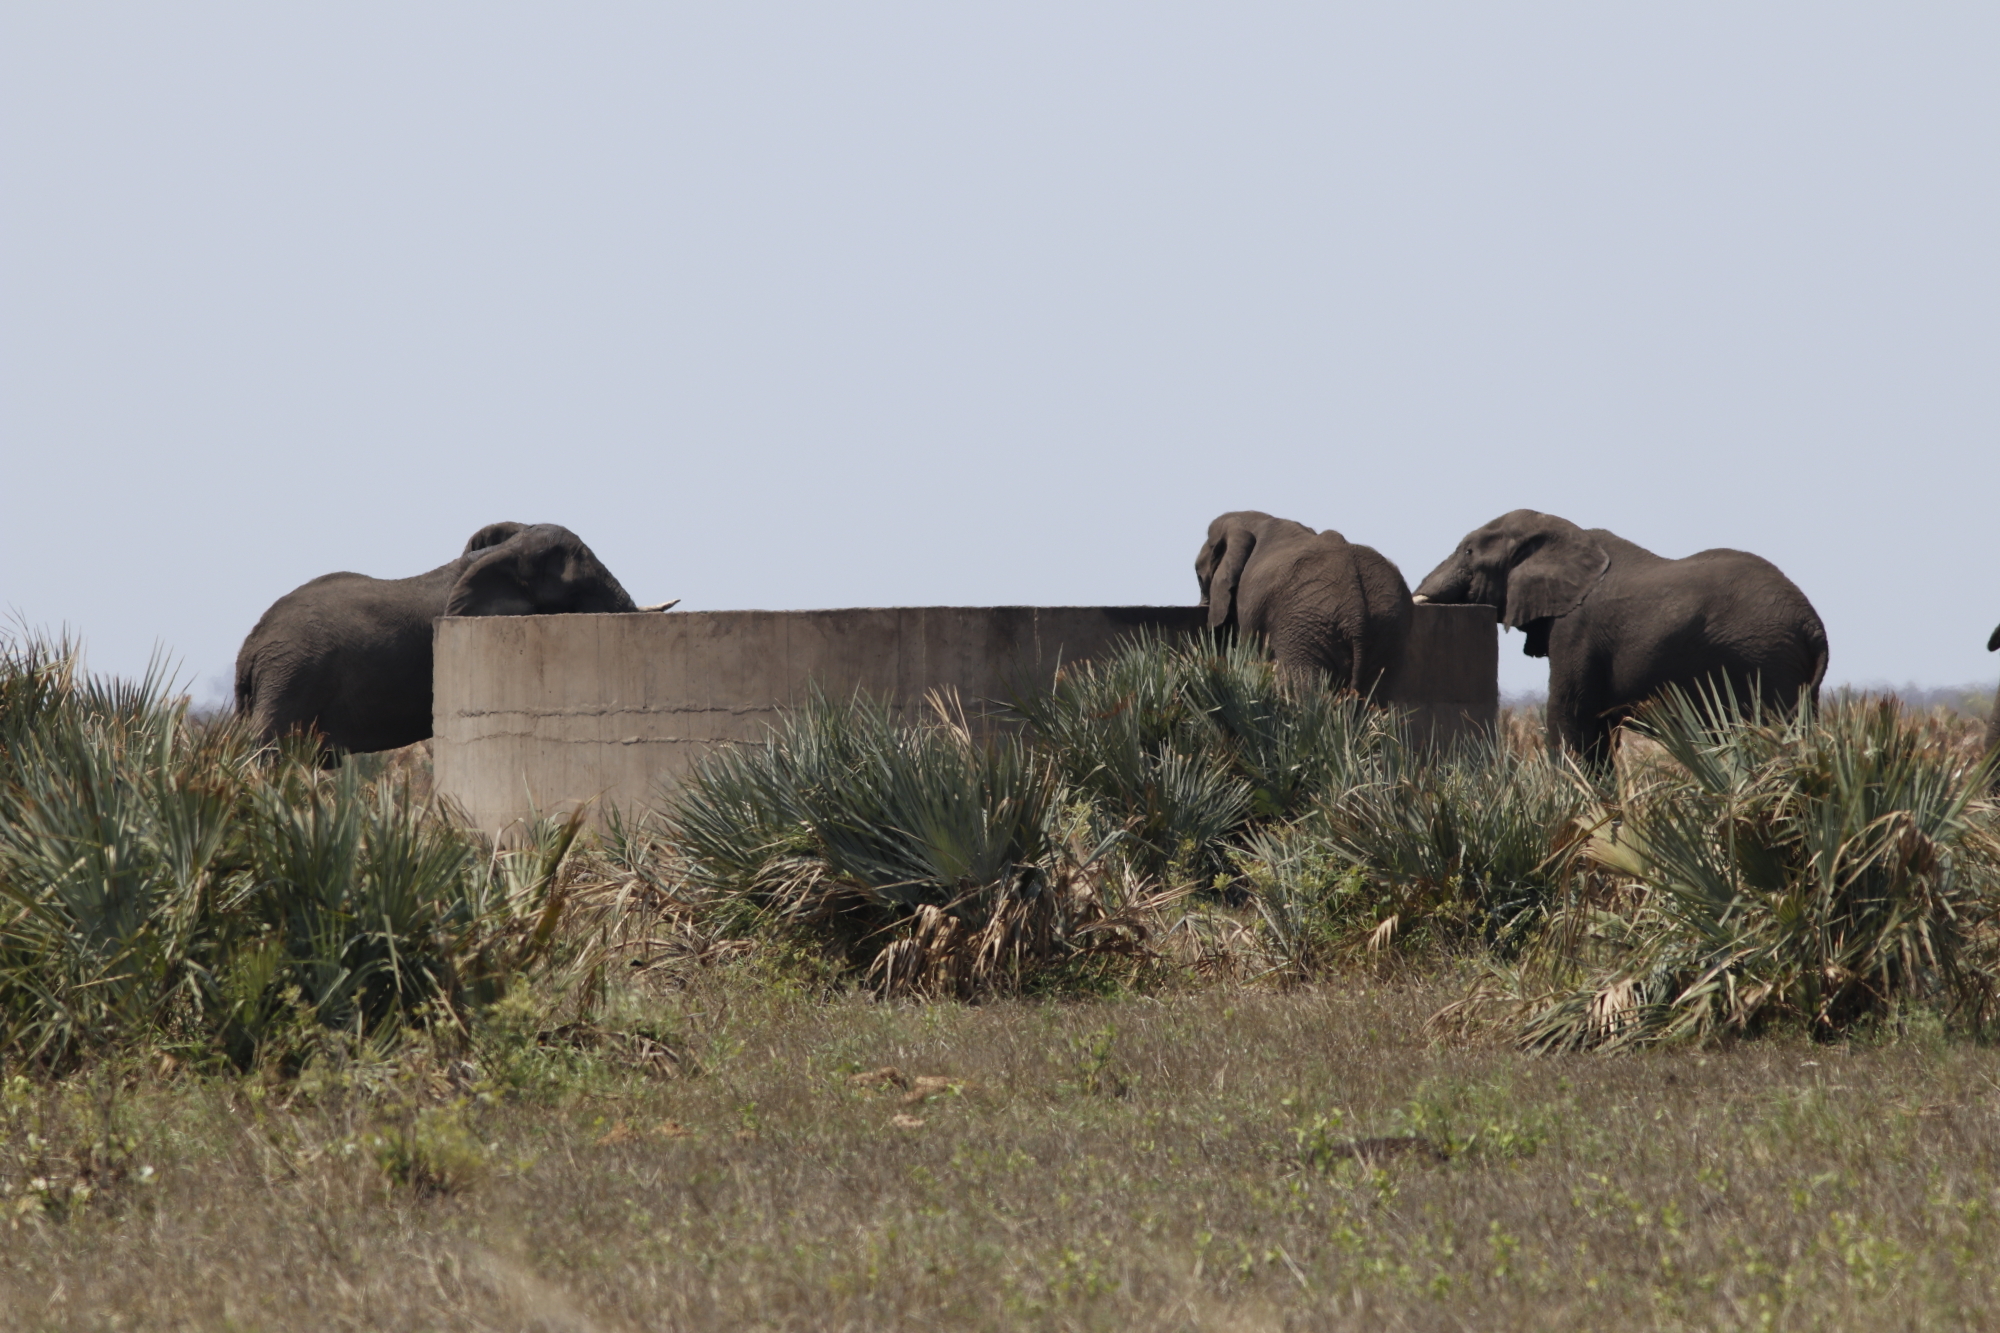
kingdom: Animalia
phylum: Chordata
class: Mammalia
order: Proboscidea
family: Elephantidae
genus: Loxodonta
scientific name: Loxodonta africana
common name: African elephant
